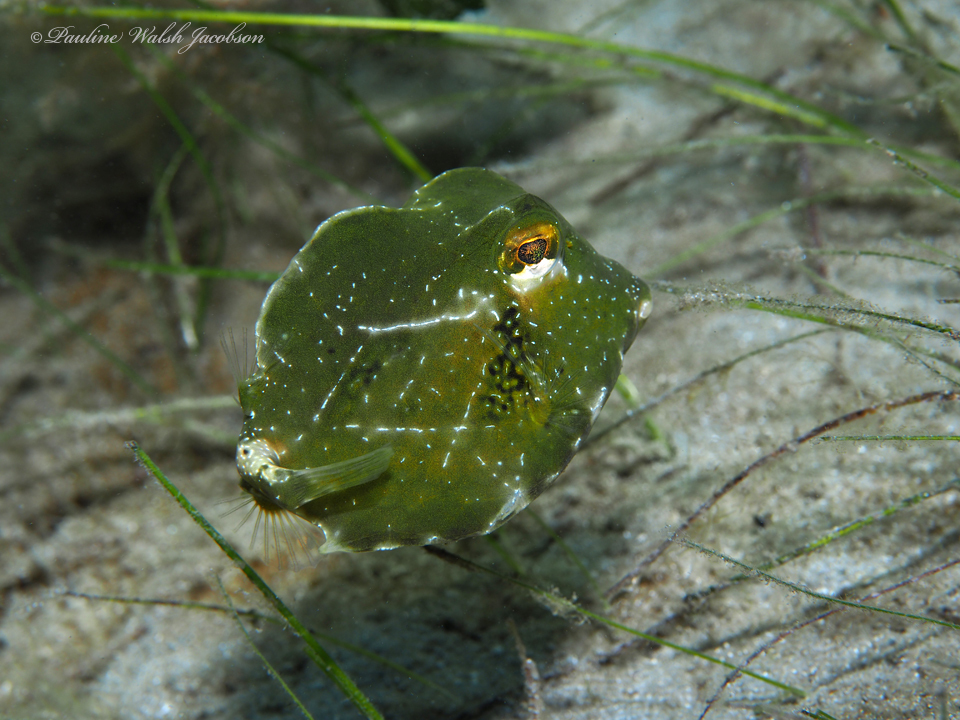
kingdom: Animalia
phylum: Chordata
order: Tetraodontiformes
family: Ostraciidae
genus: Lactophrys
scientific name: Lactophrys trigonus
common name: Buffalo trunkfish
